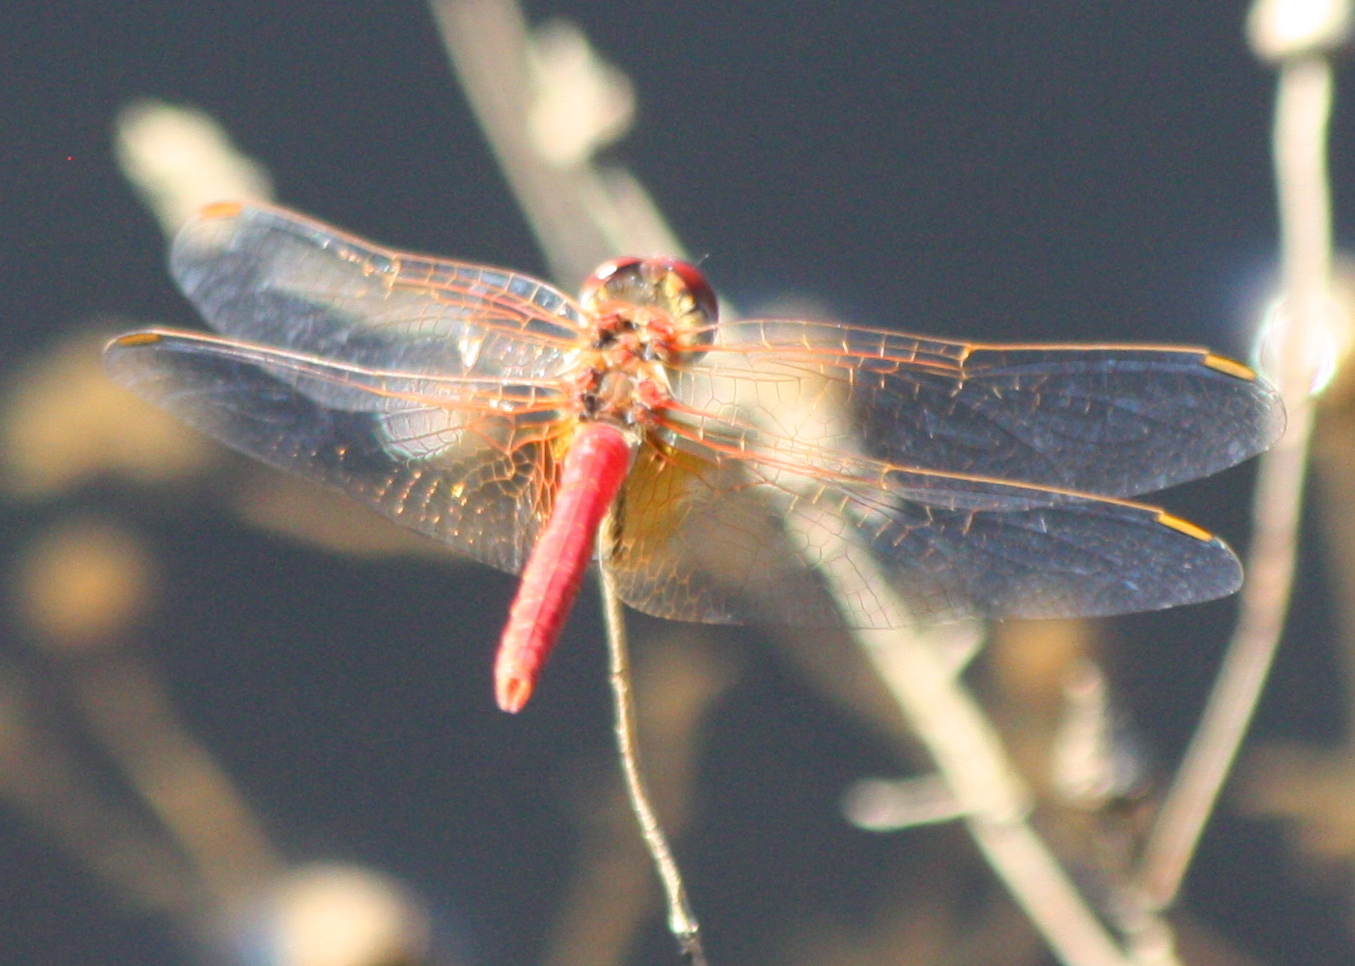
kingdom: Animalia
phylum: Arthropoda
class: Insecta
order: Odonata
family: Libellulidae
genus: Sympetrum
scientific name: Sympetrum fonscolombii
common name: Red-veined darter
